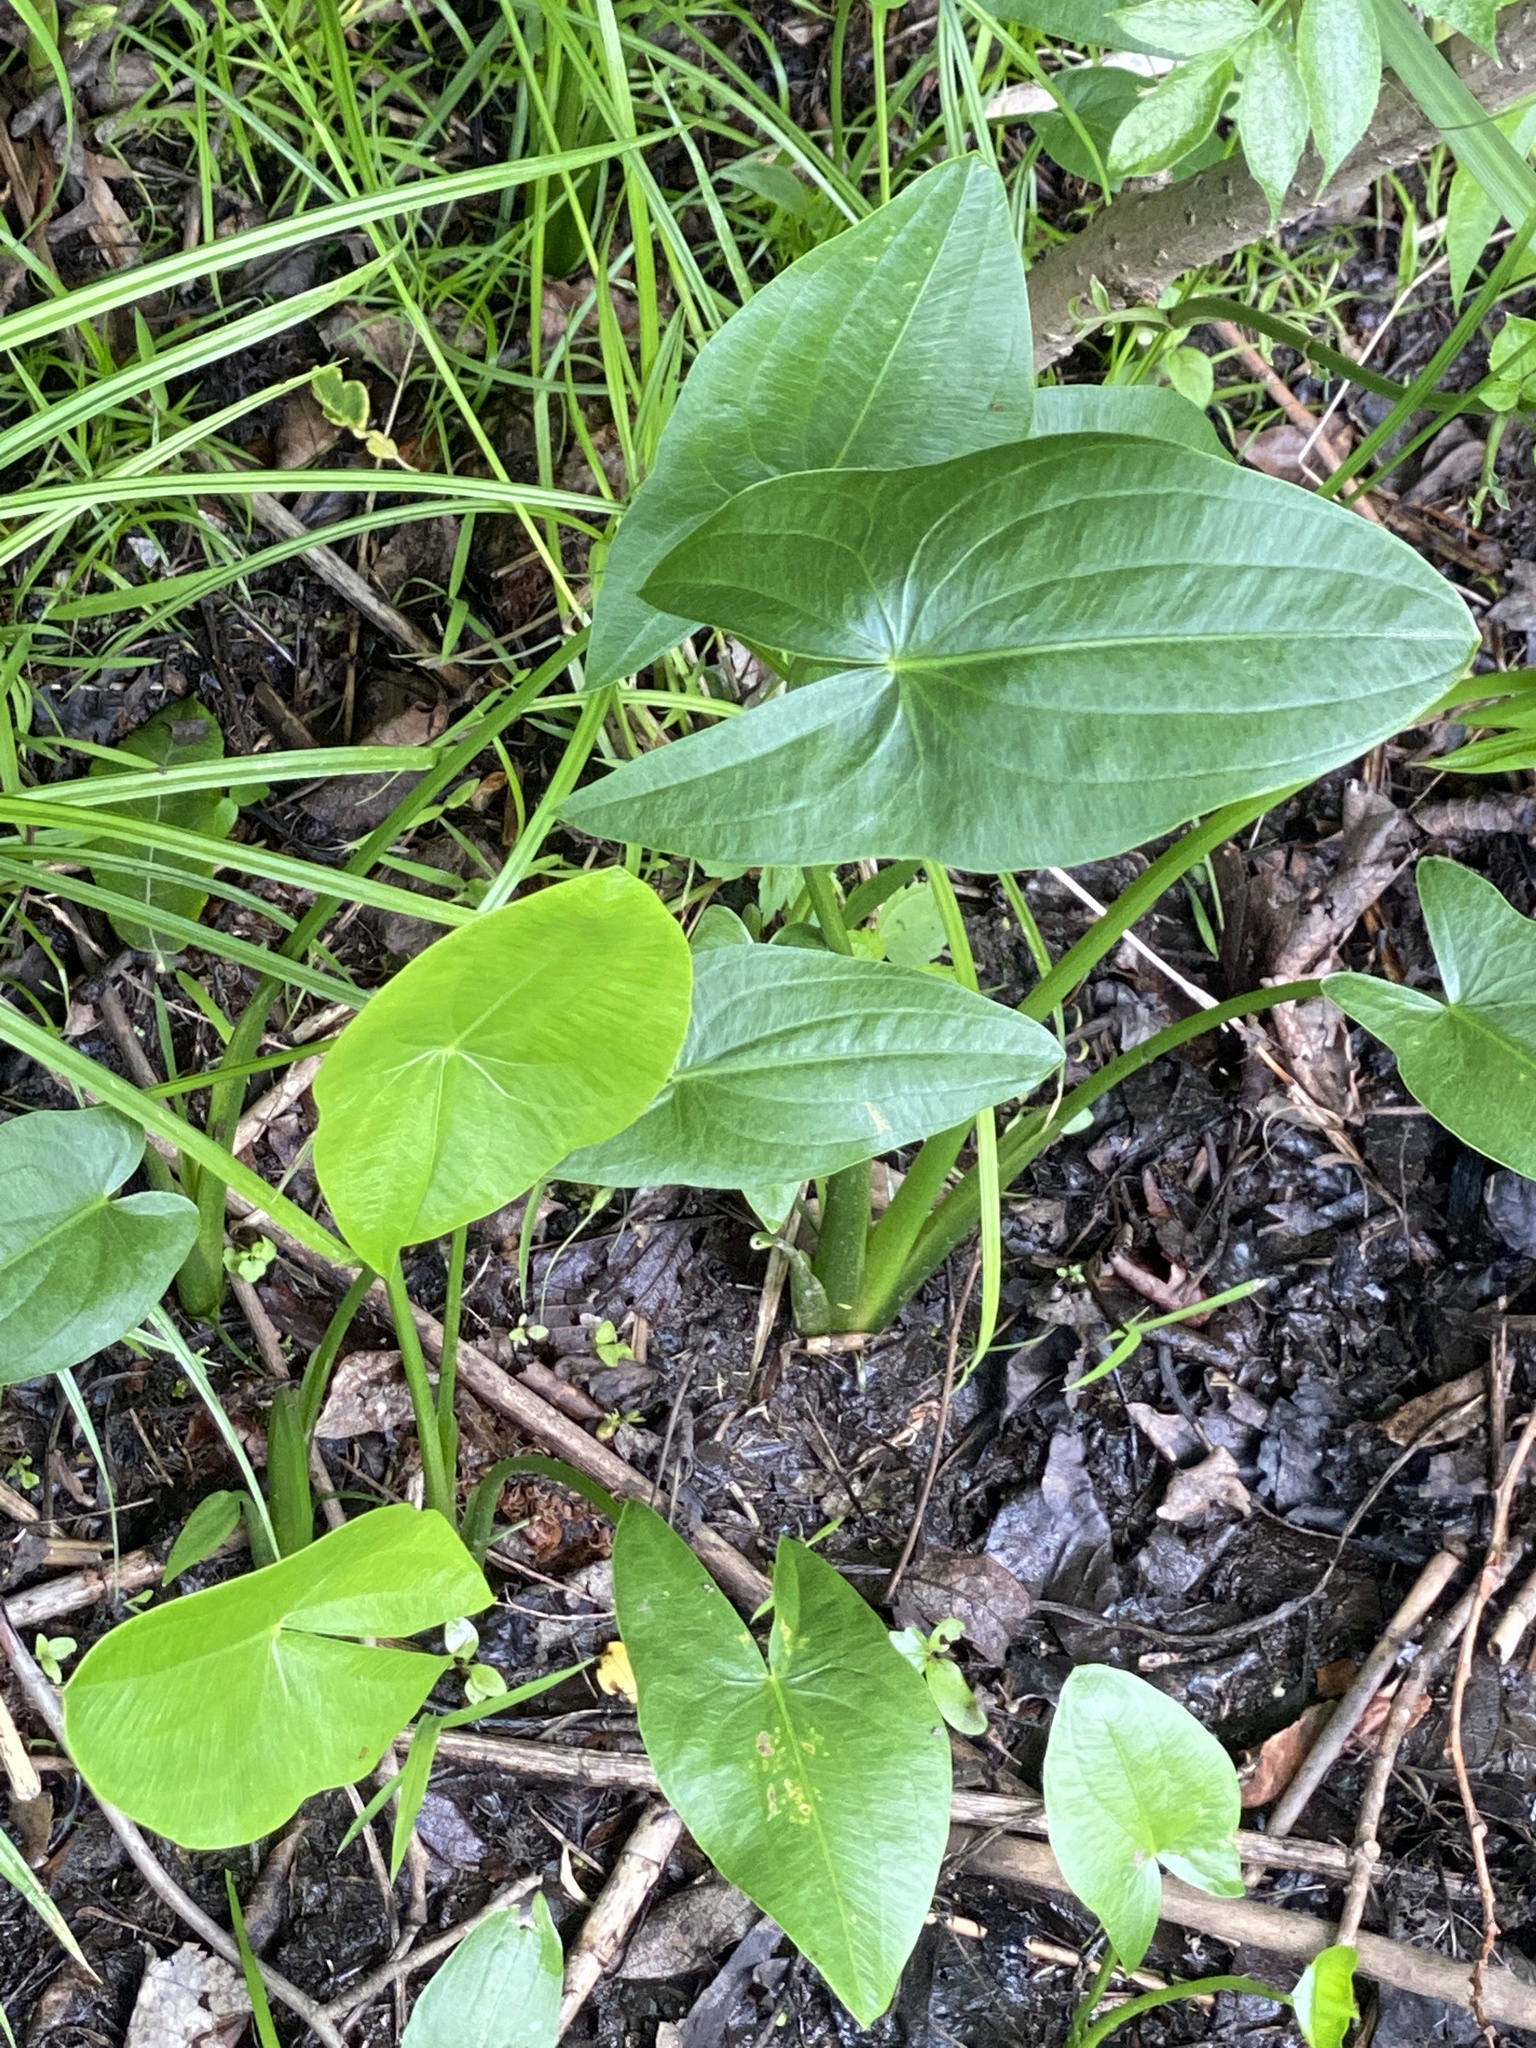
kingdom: Plantae
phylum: Tracheophyta
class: Liliopsida
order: Alismatales
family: Alismataceae
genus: Sagittaria
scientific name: Sagittaria latifolia
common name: Duck-potato
